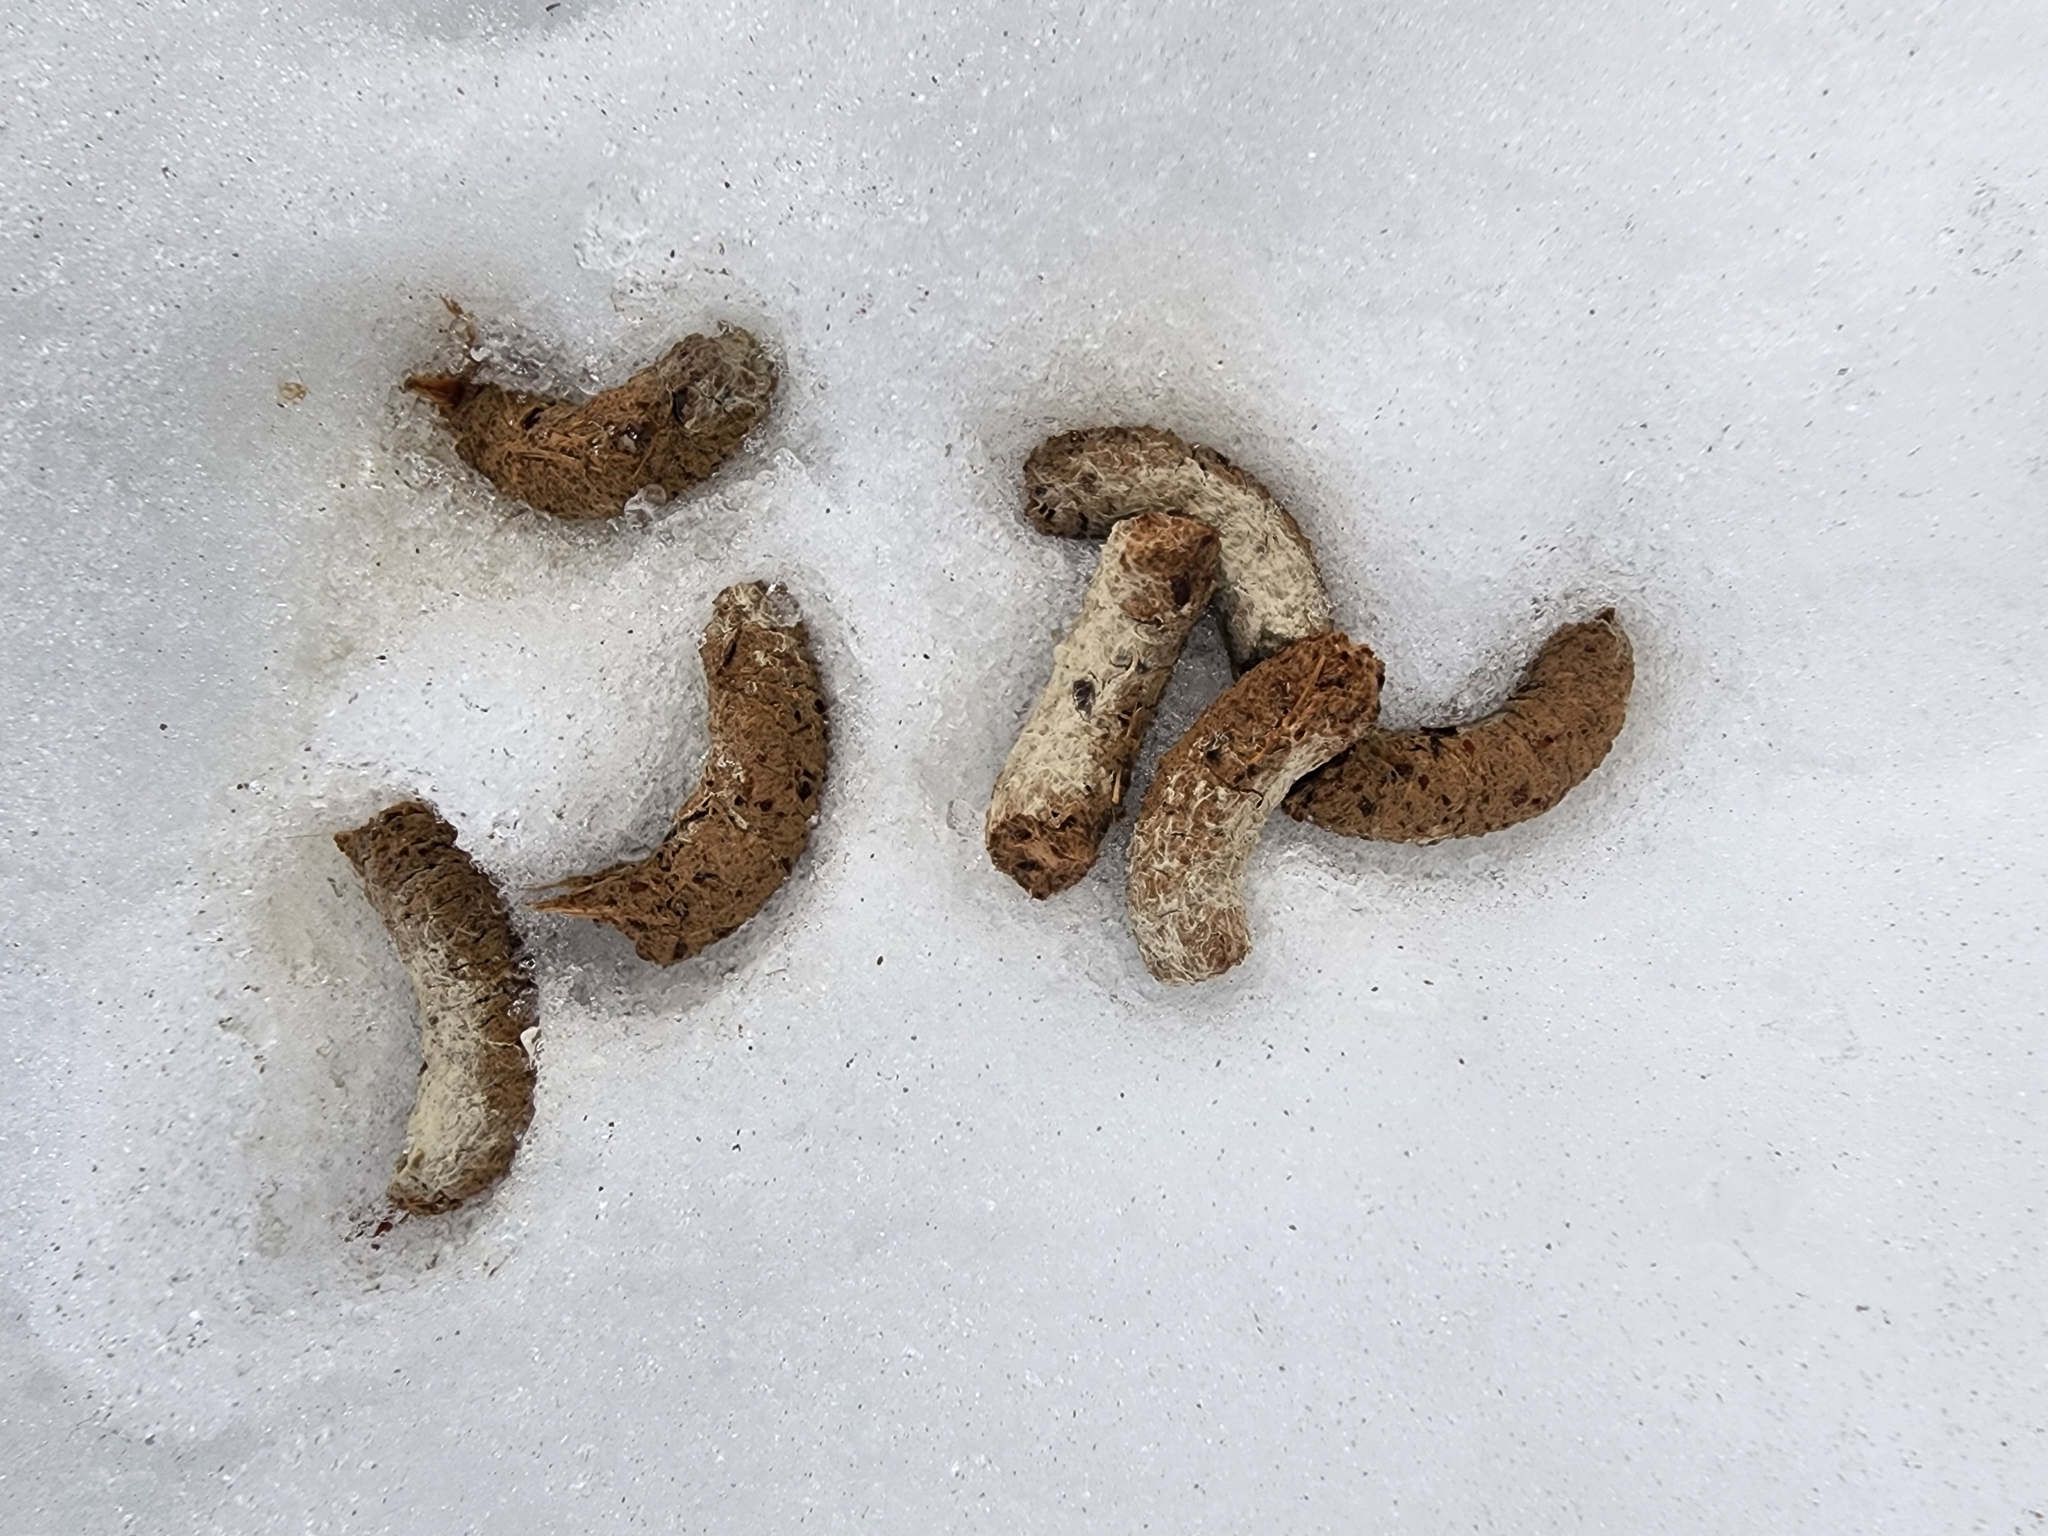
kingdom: Animalia
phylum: Chordata
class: Aves
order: Galliformes
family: Phasianidae
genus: Bonasa
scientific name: Bonasa umbellus
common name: Ruffed grouse
